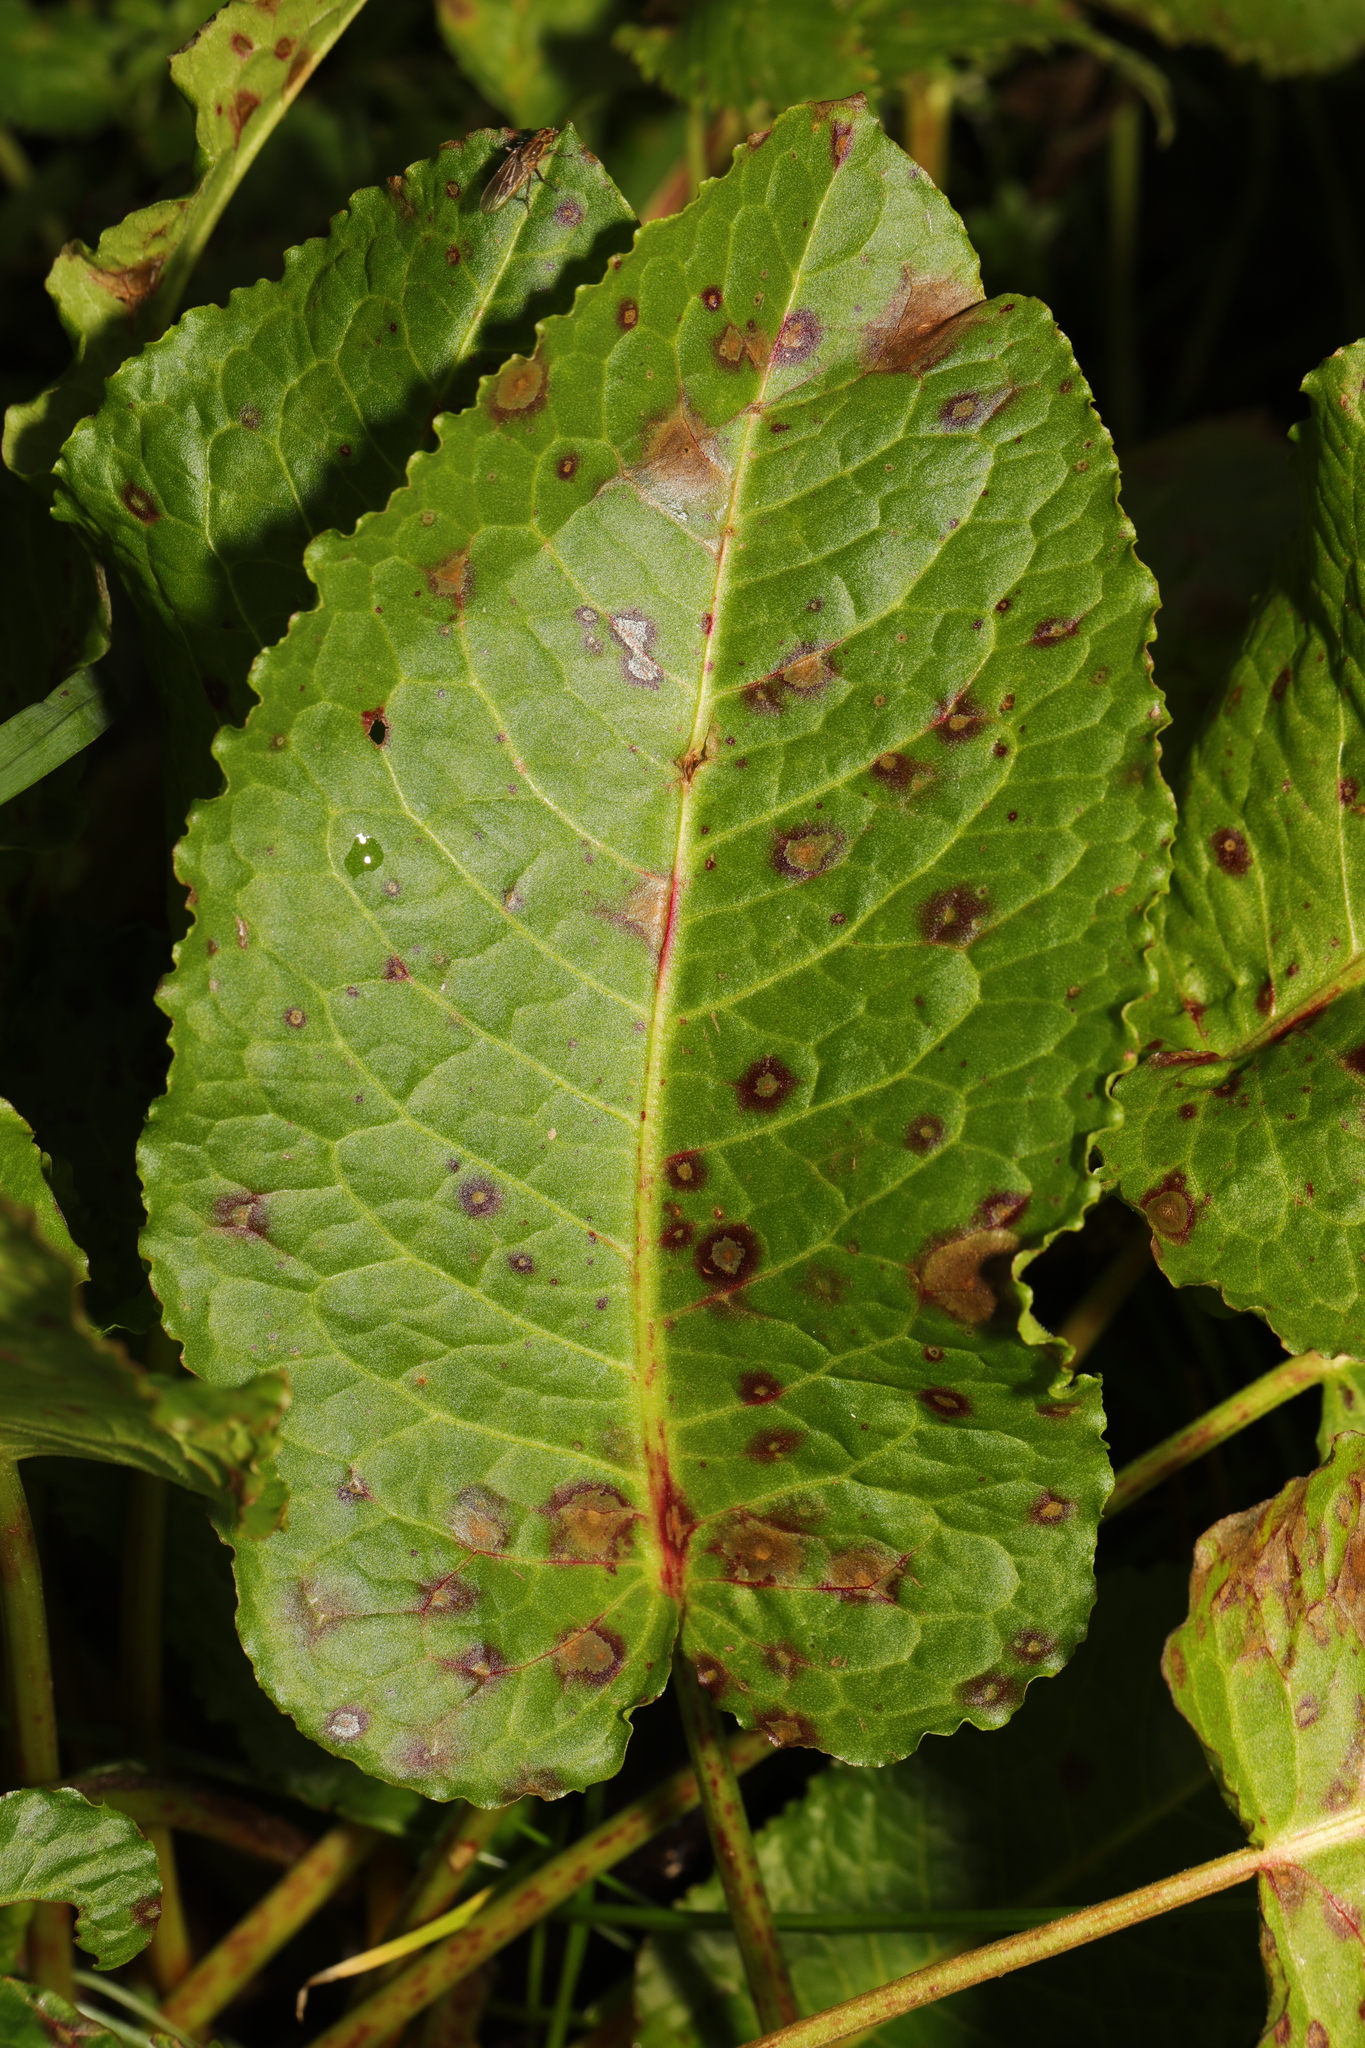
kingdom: Fungi
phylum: Ascomycota
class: Dothideomycetes
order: Mycosphaerellales
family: Mycosphaerellaceae
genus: Ramularia
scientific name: Ramularia rubella
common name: Red dock spot
